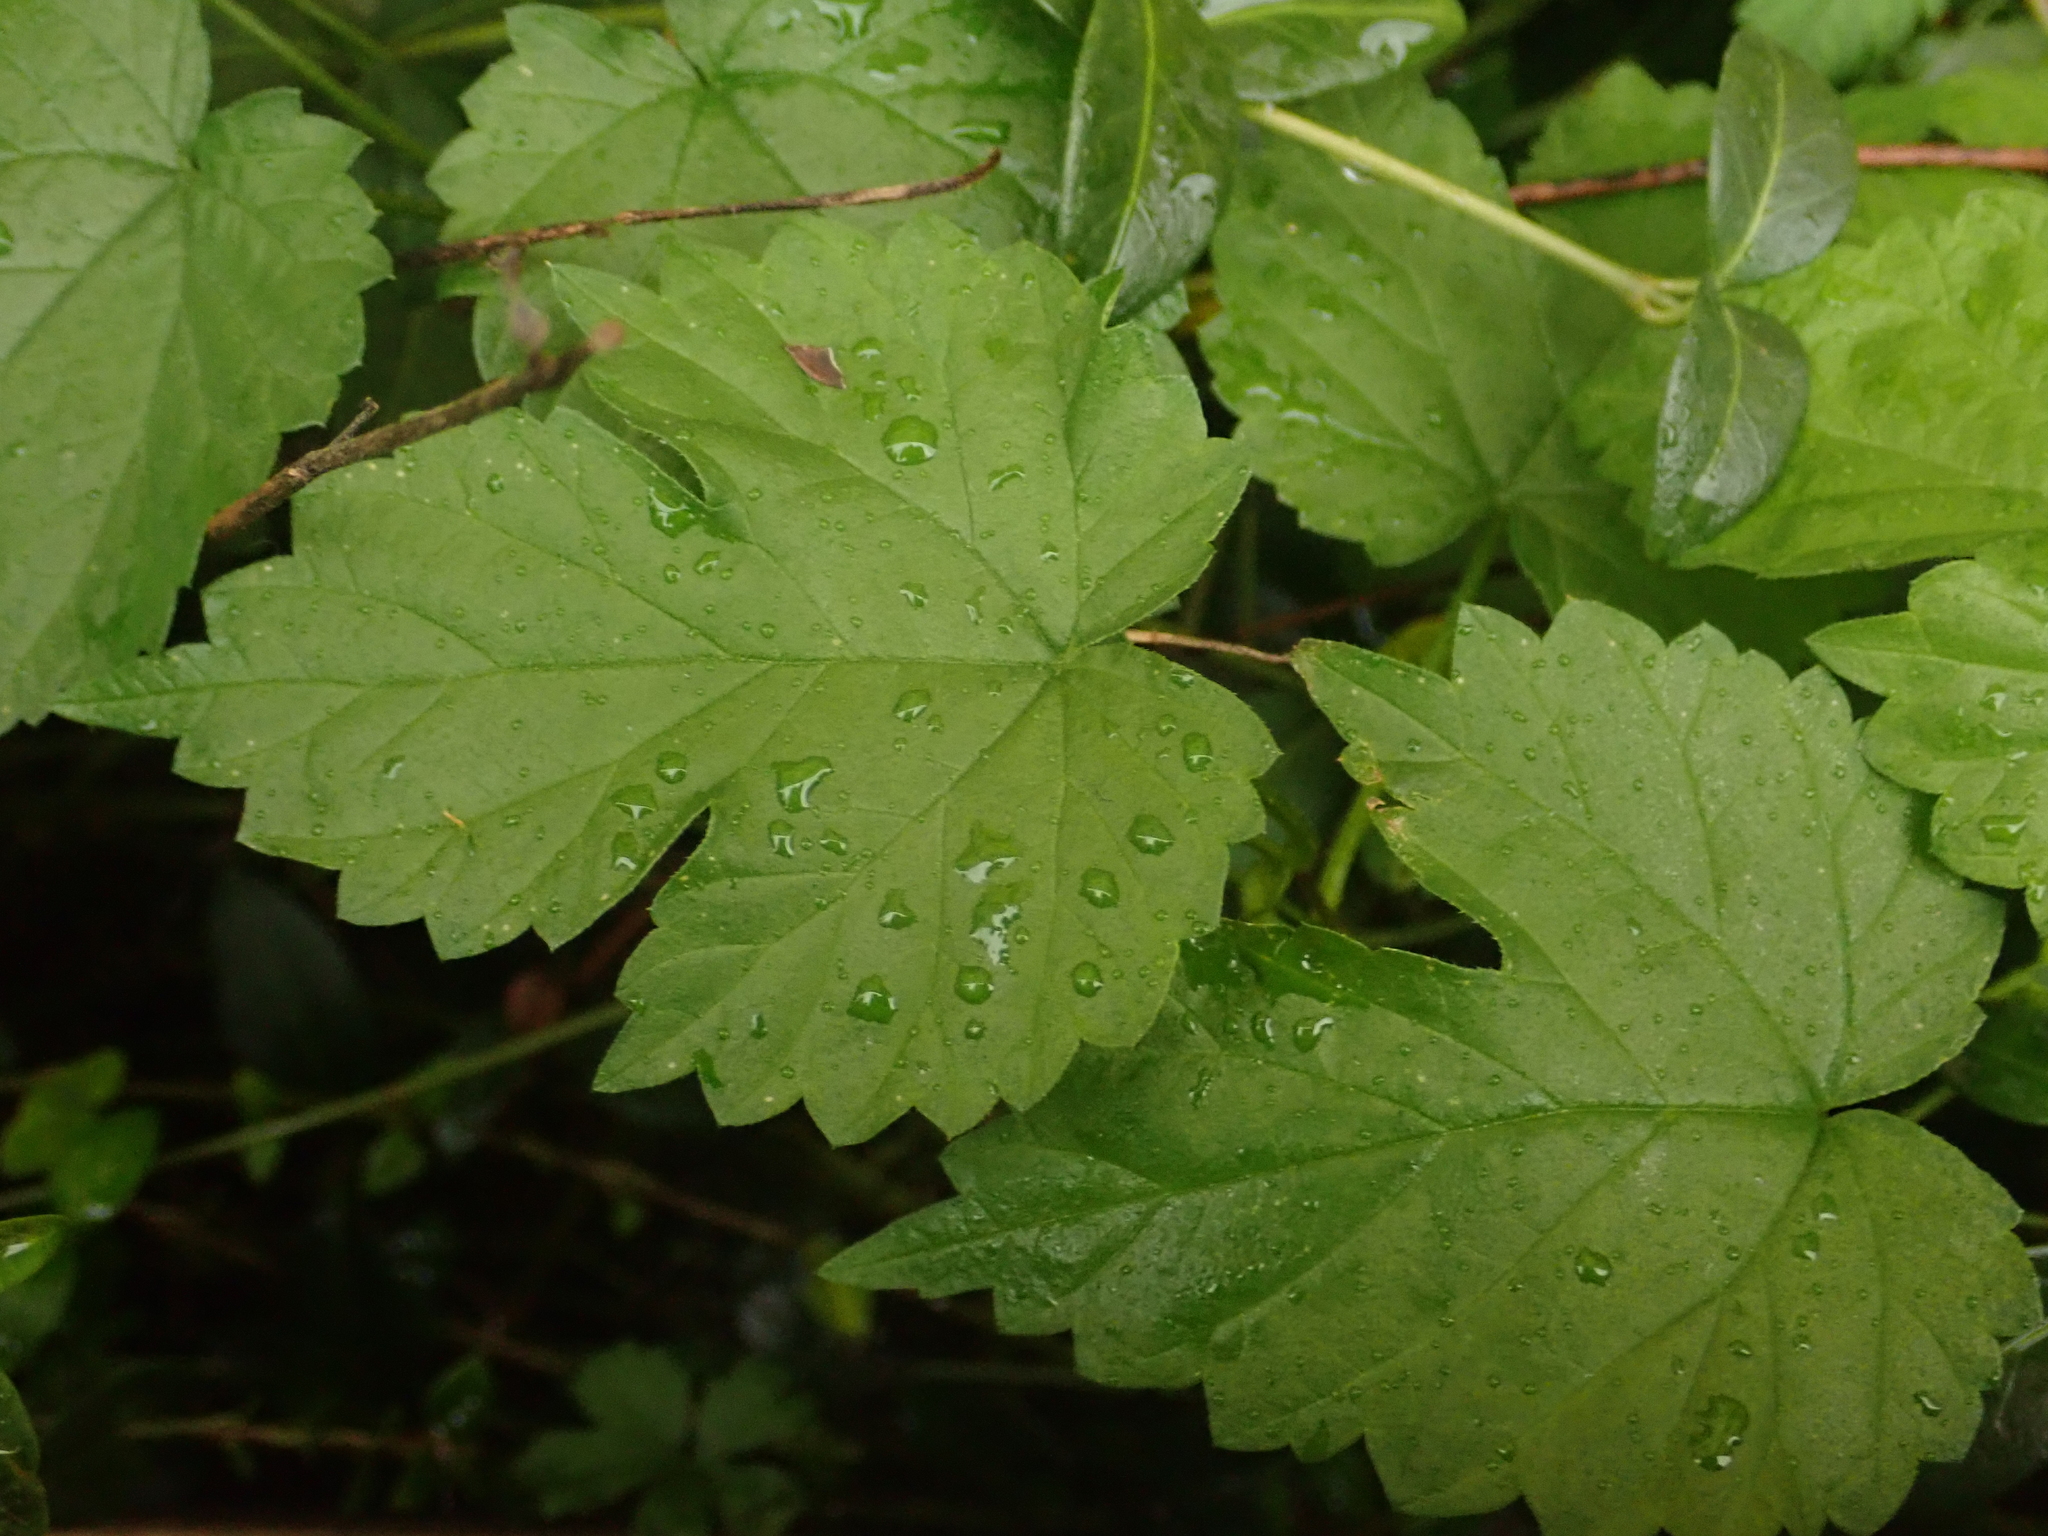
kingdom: Plantae
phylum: Tracheophyta
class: Magnoliopsida
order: Rosales
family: Cannabaceae
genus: Humulus
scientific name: Humulus lupulus
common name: Hop
